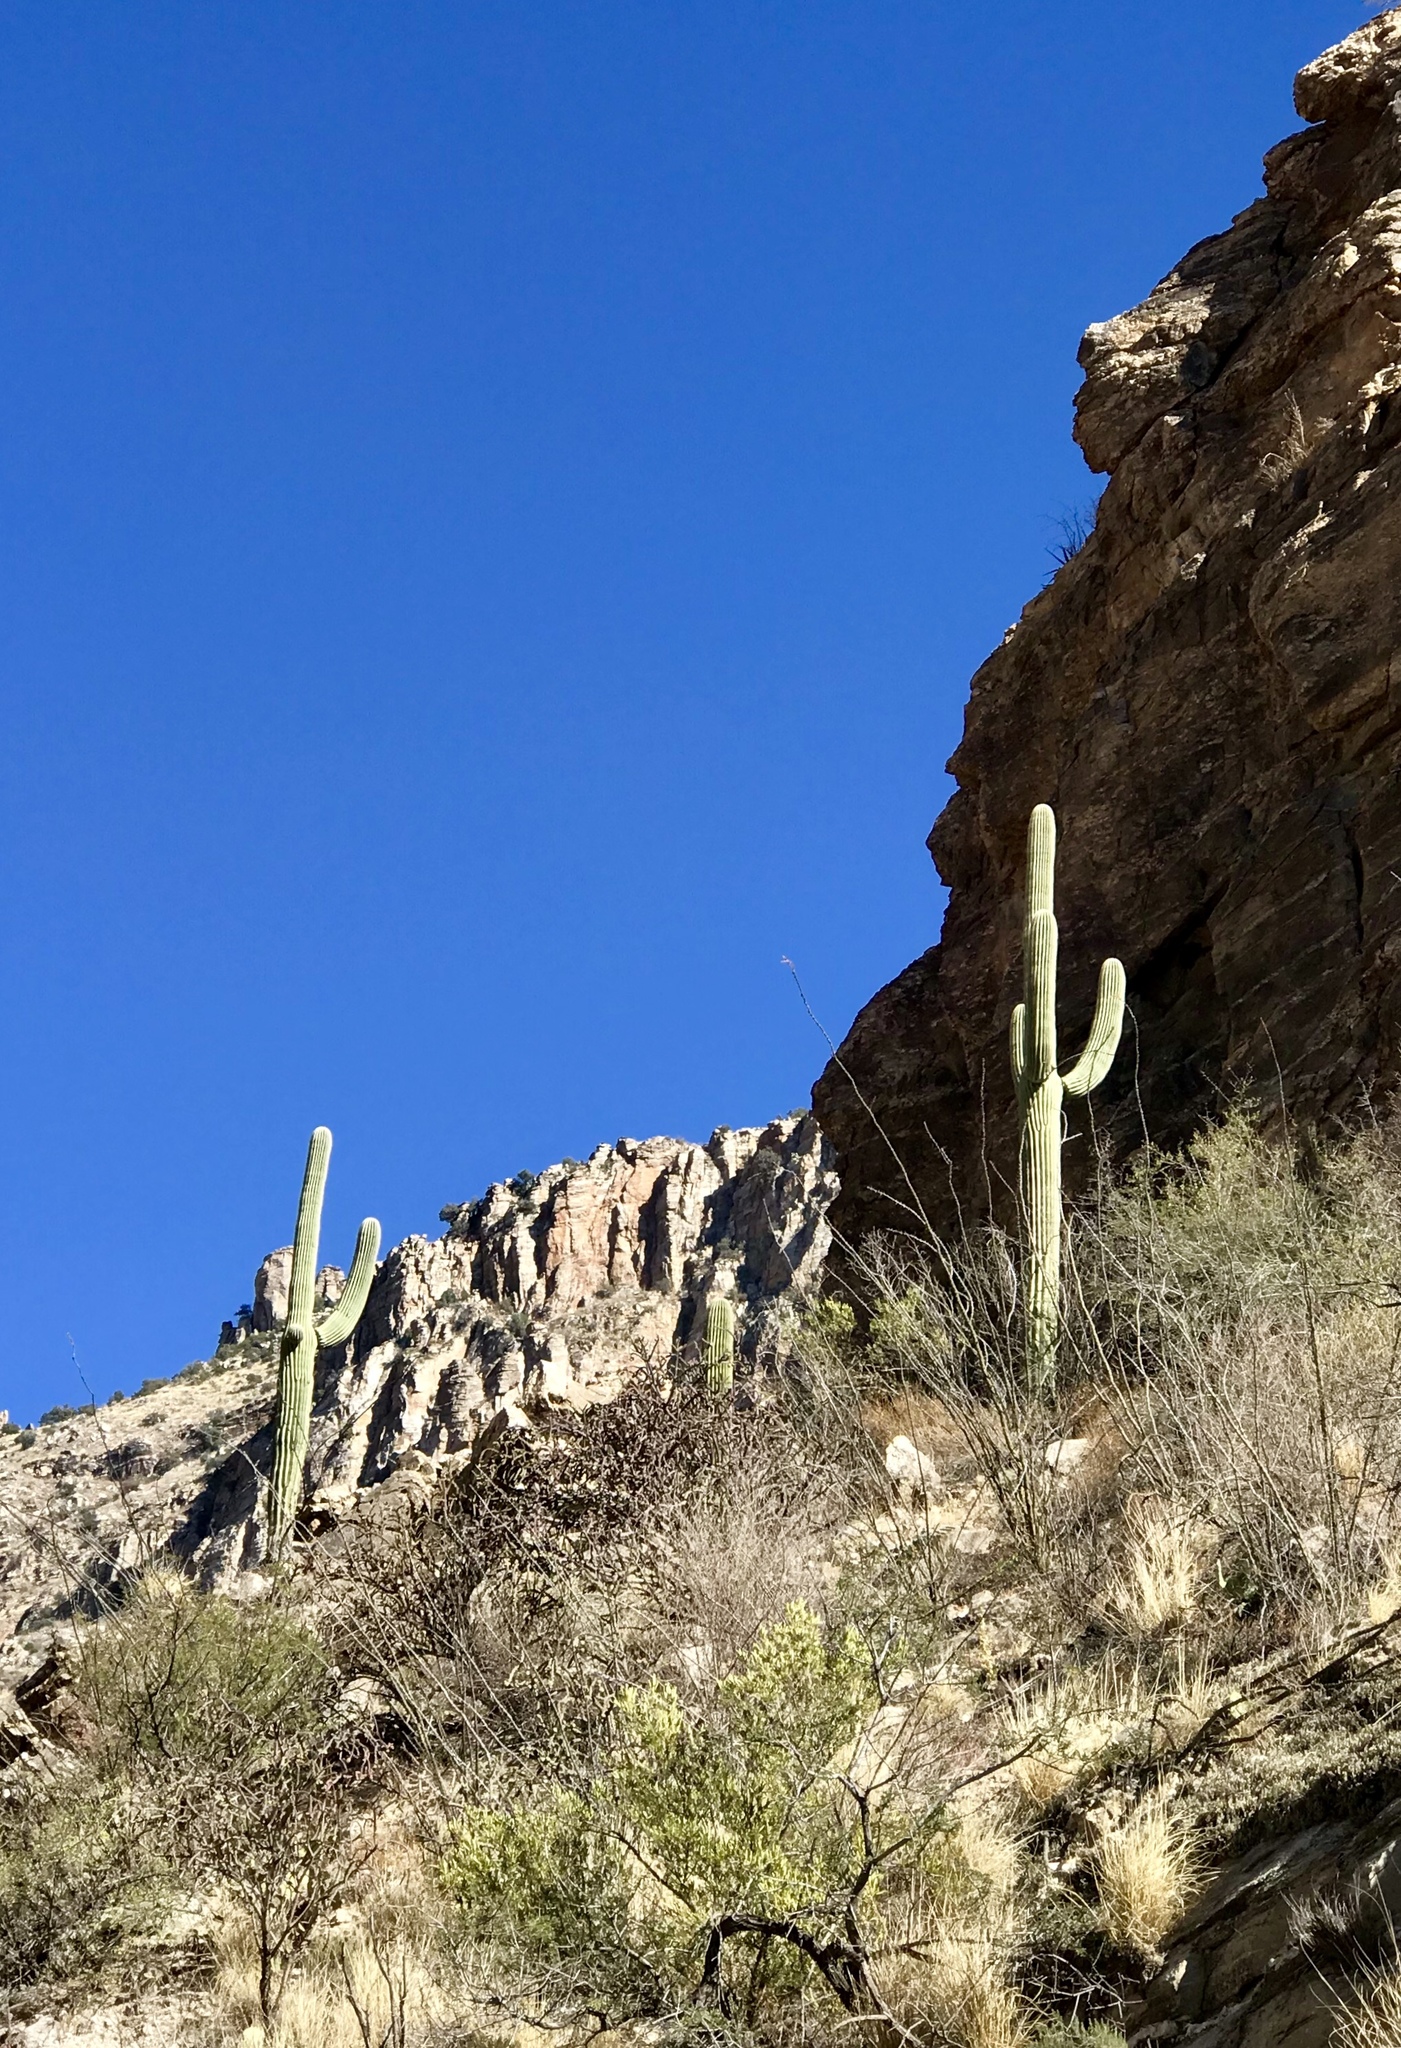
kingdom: Plantae
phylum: Tracheophyta
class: Magnoliopsida
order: Caryophyllales
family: Cactaceae
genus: Carnegiea
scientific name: Carnegiea gigantea
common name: Saguaro
